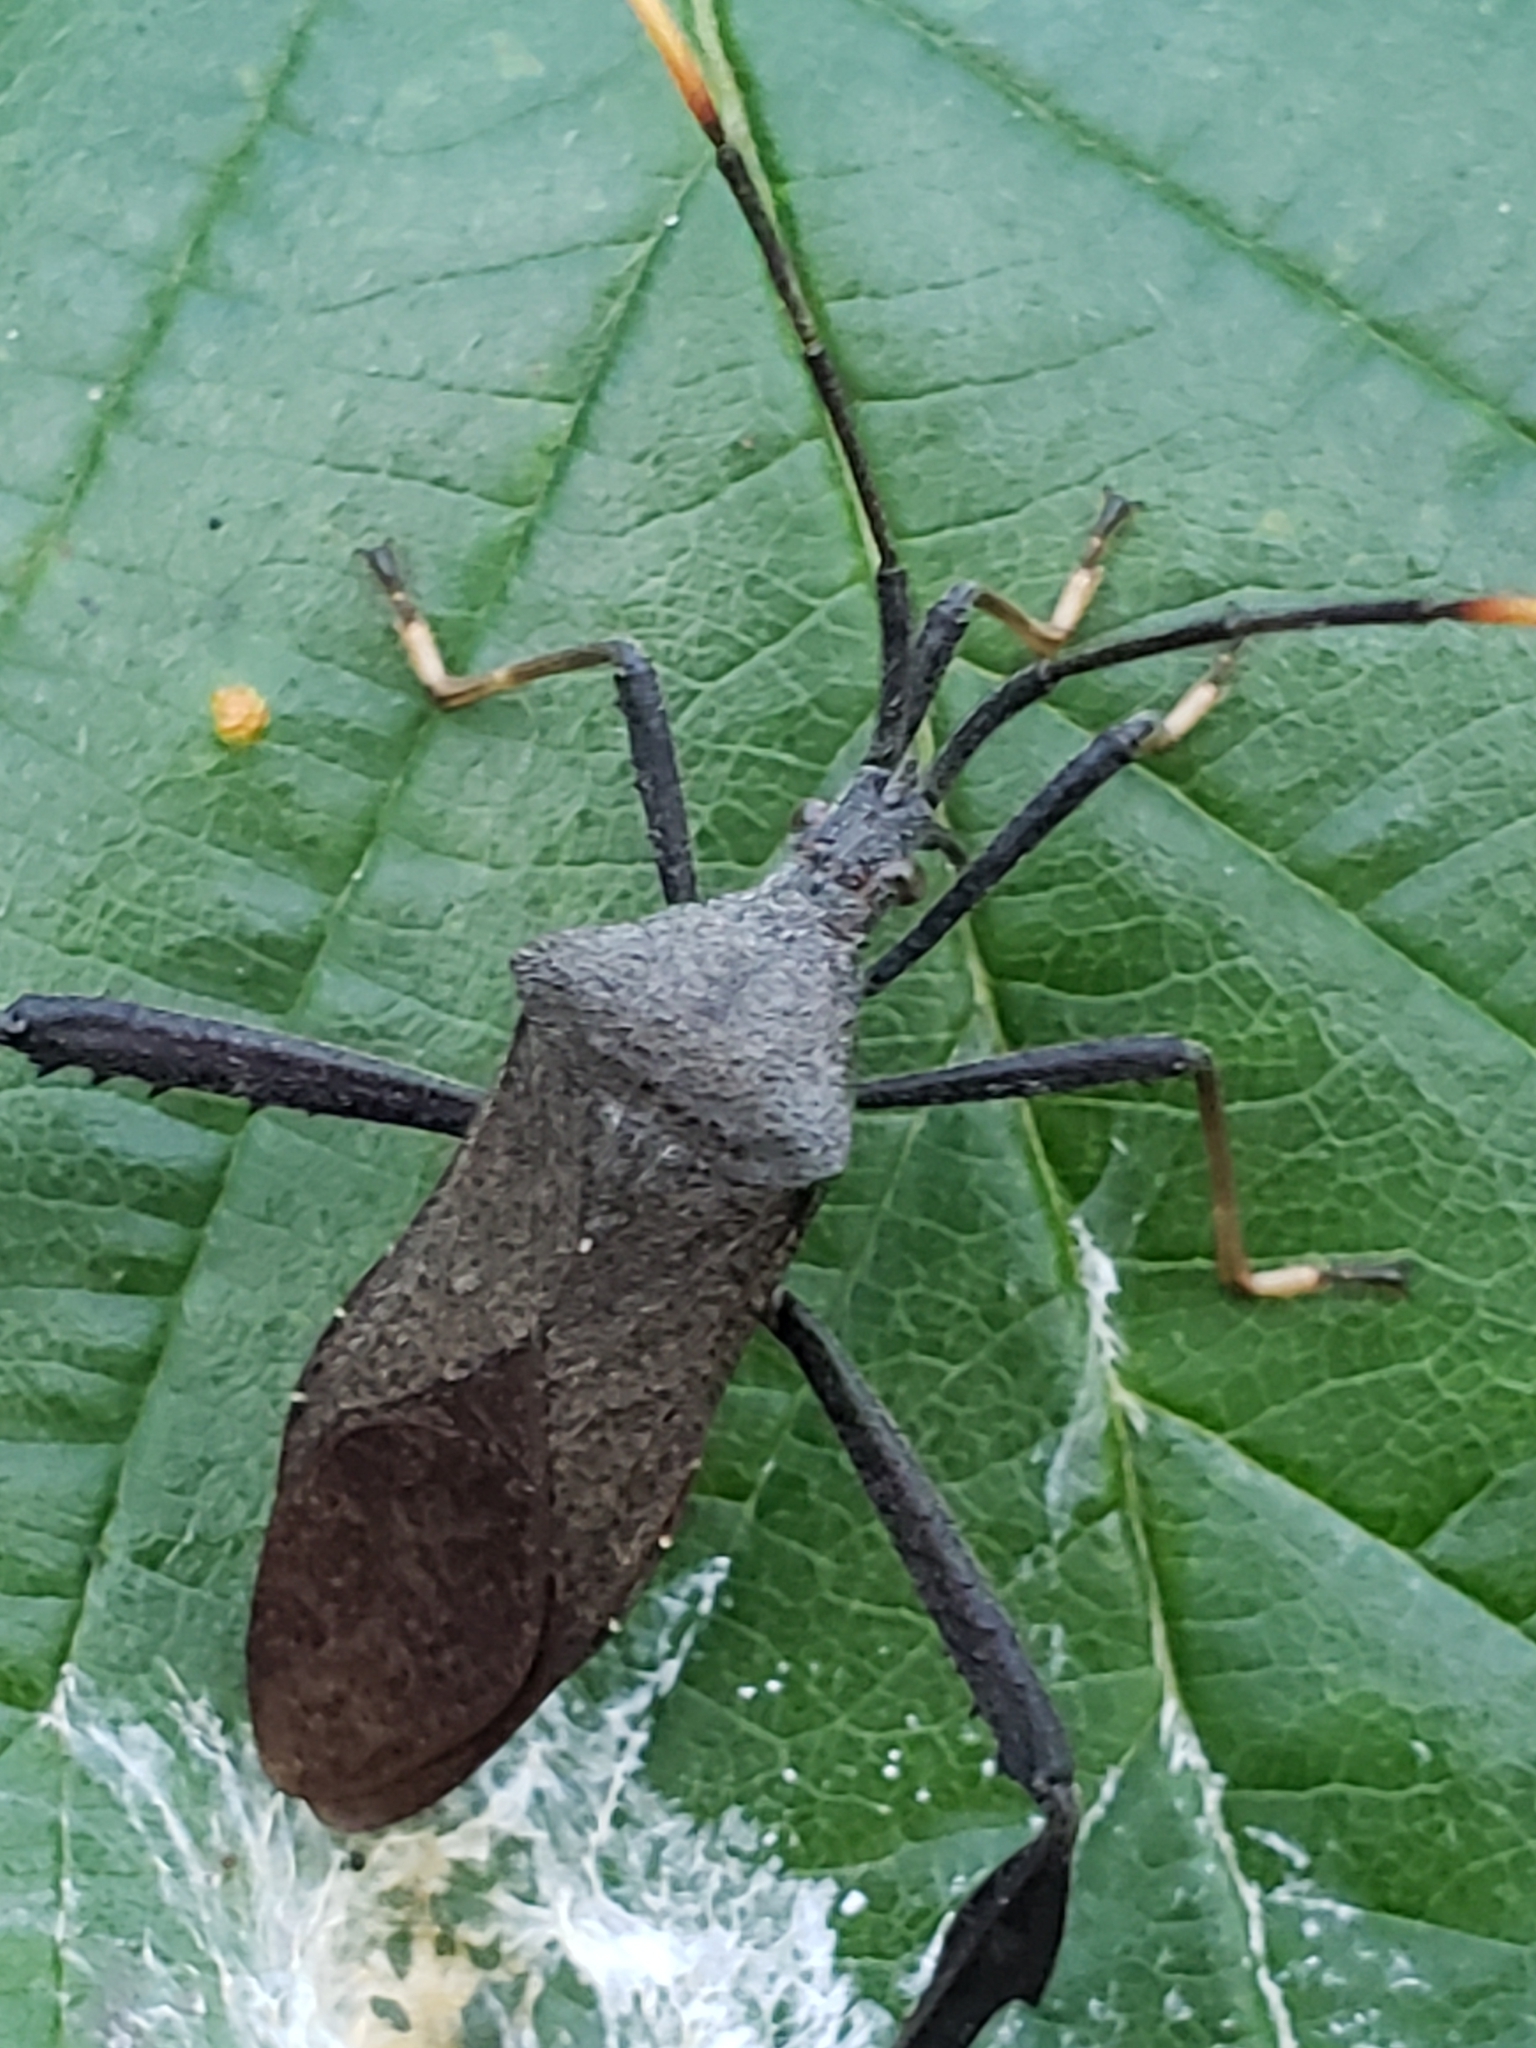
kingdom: Animalia
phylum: Arthropoda
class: Insecta
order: Hemiptera
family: Coreidae
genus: Acanthocephala
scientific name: Acanthocephala terminalis
